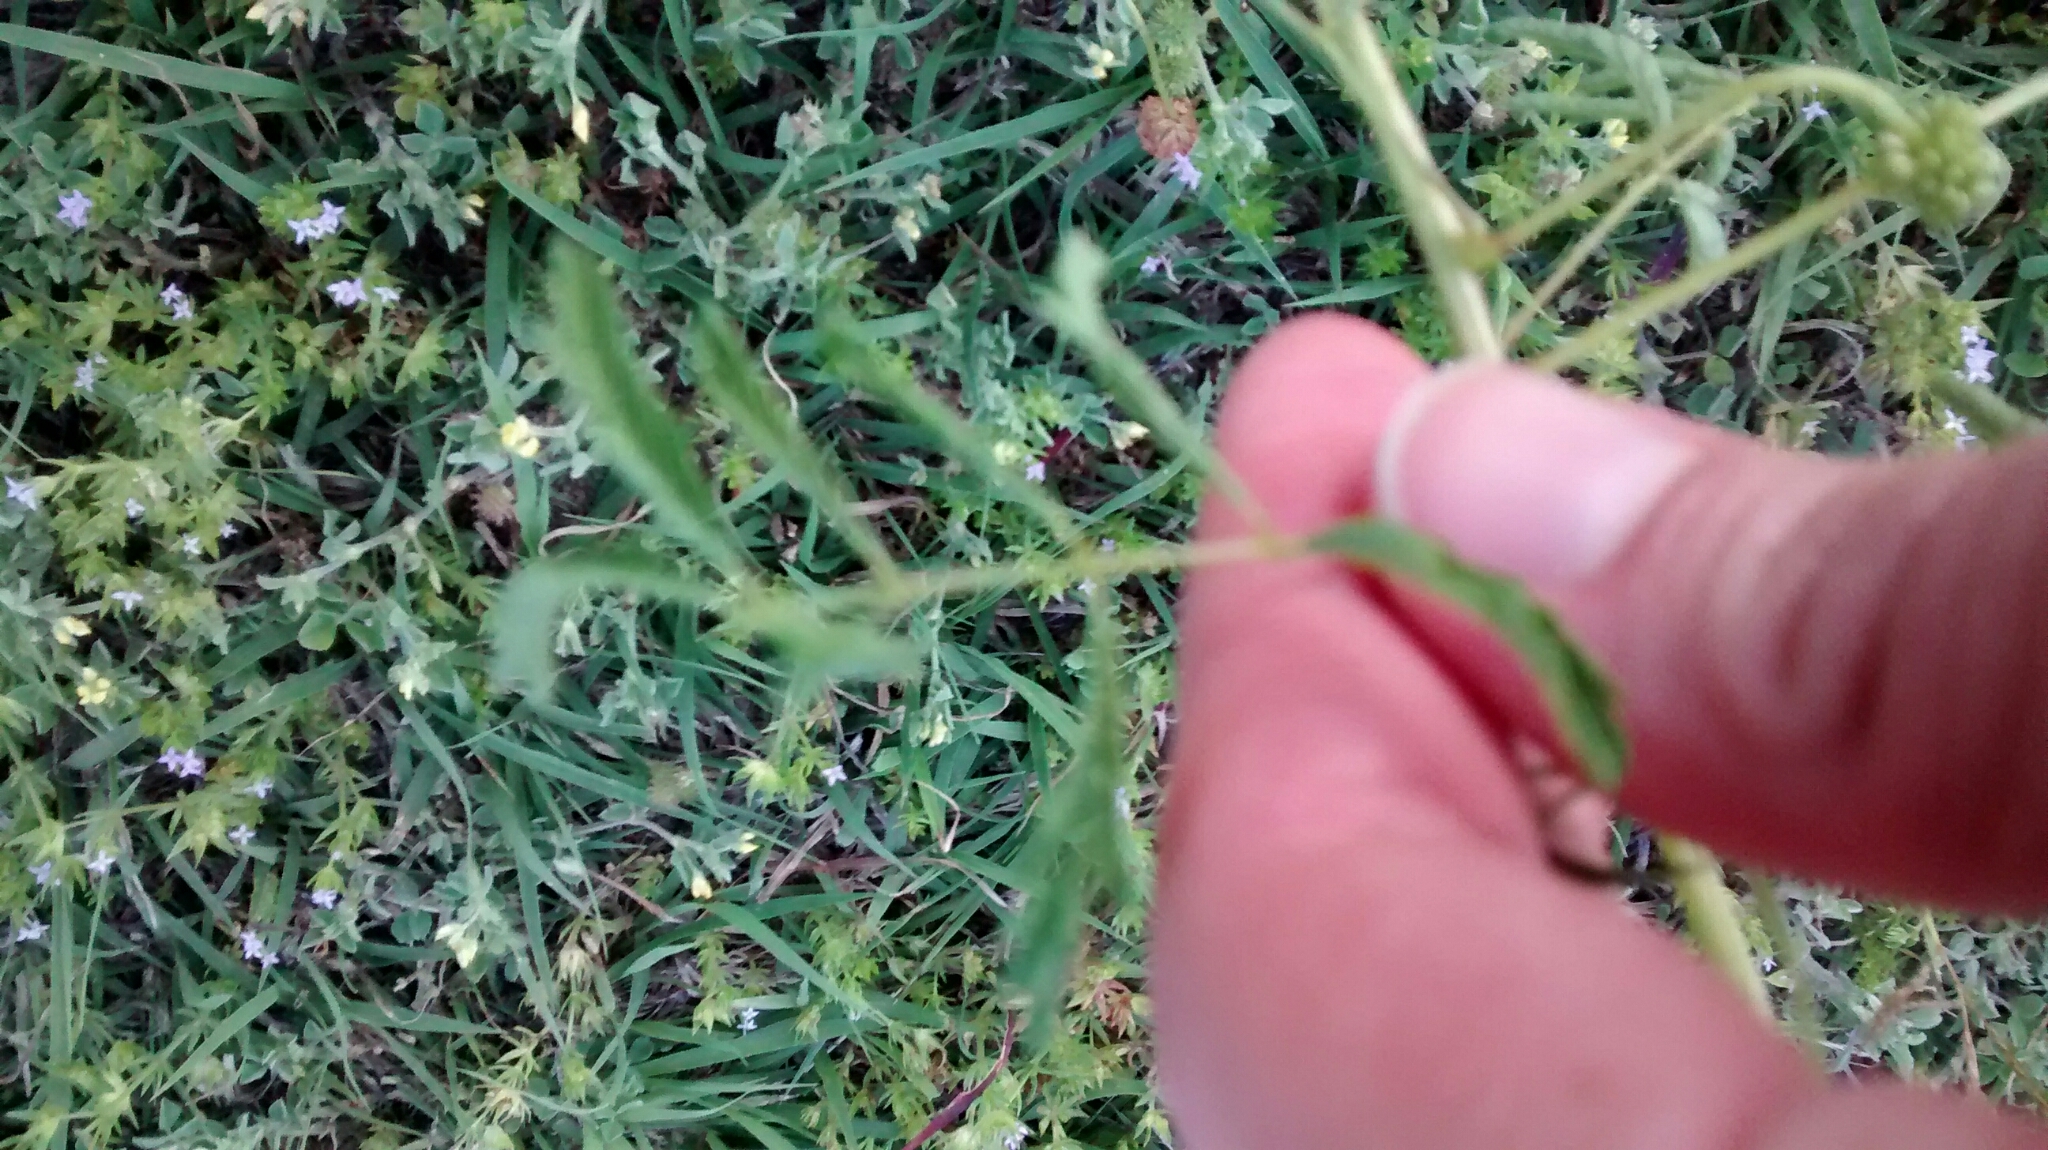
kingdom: Plantae
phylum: Tracheophyta
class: Magnoliopsida
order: Fabales
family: Fabaceae
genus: Mimosa
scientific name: Mimosa quadrivalvis
